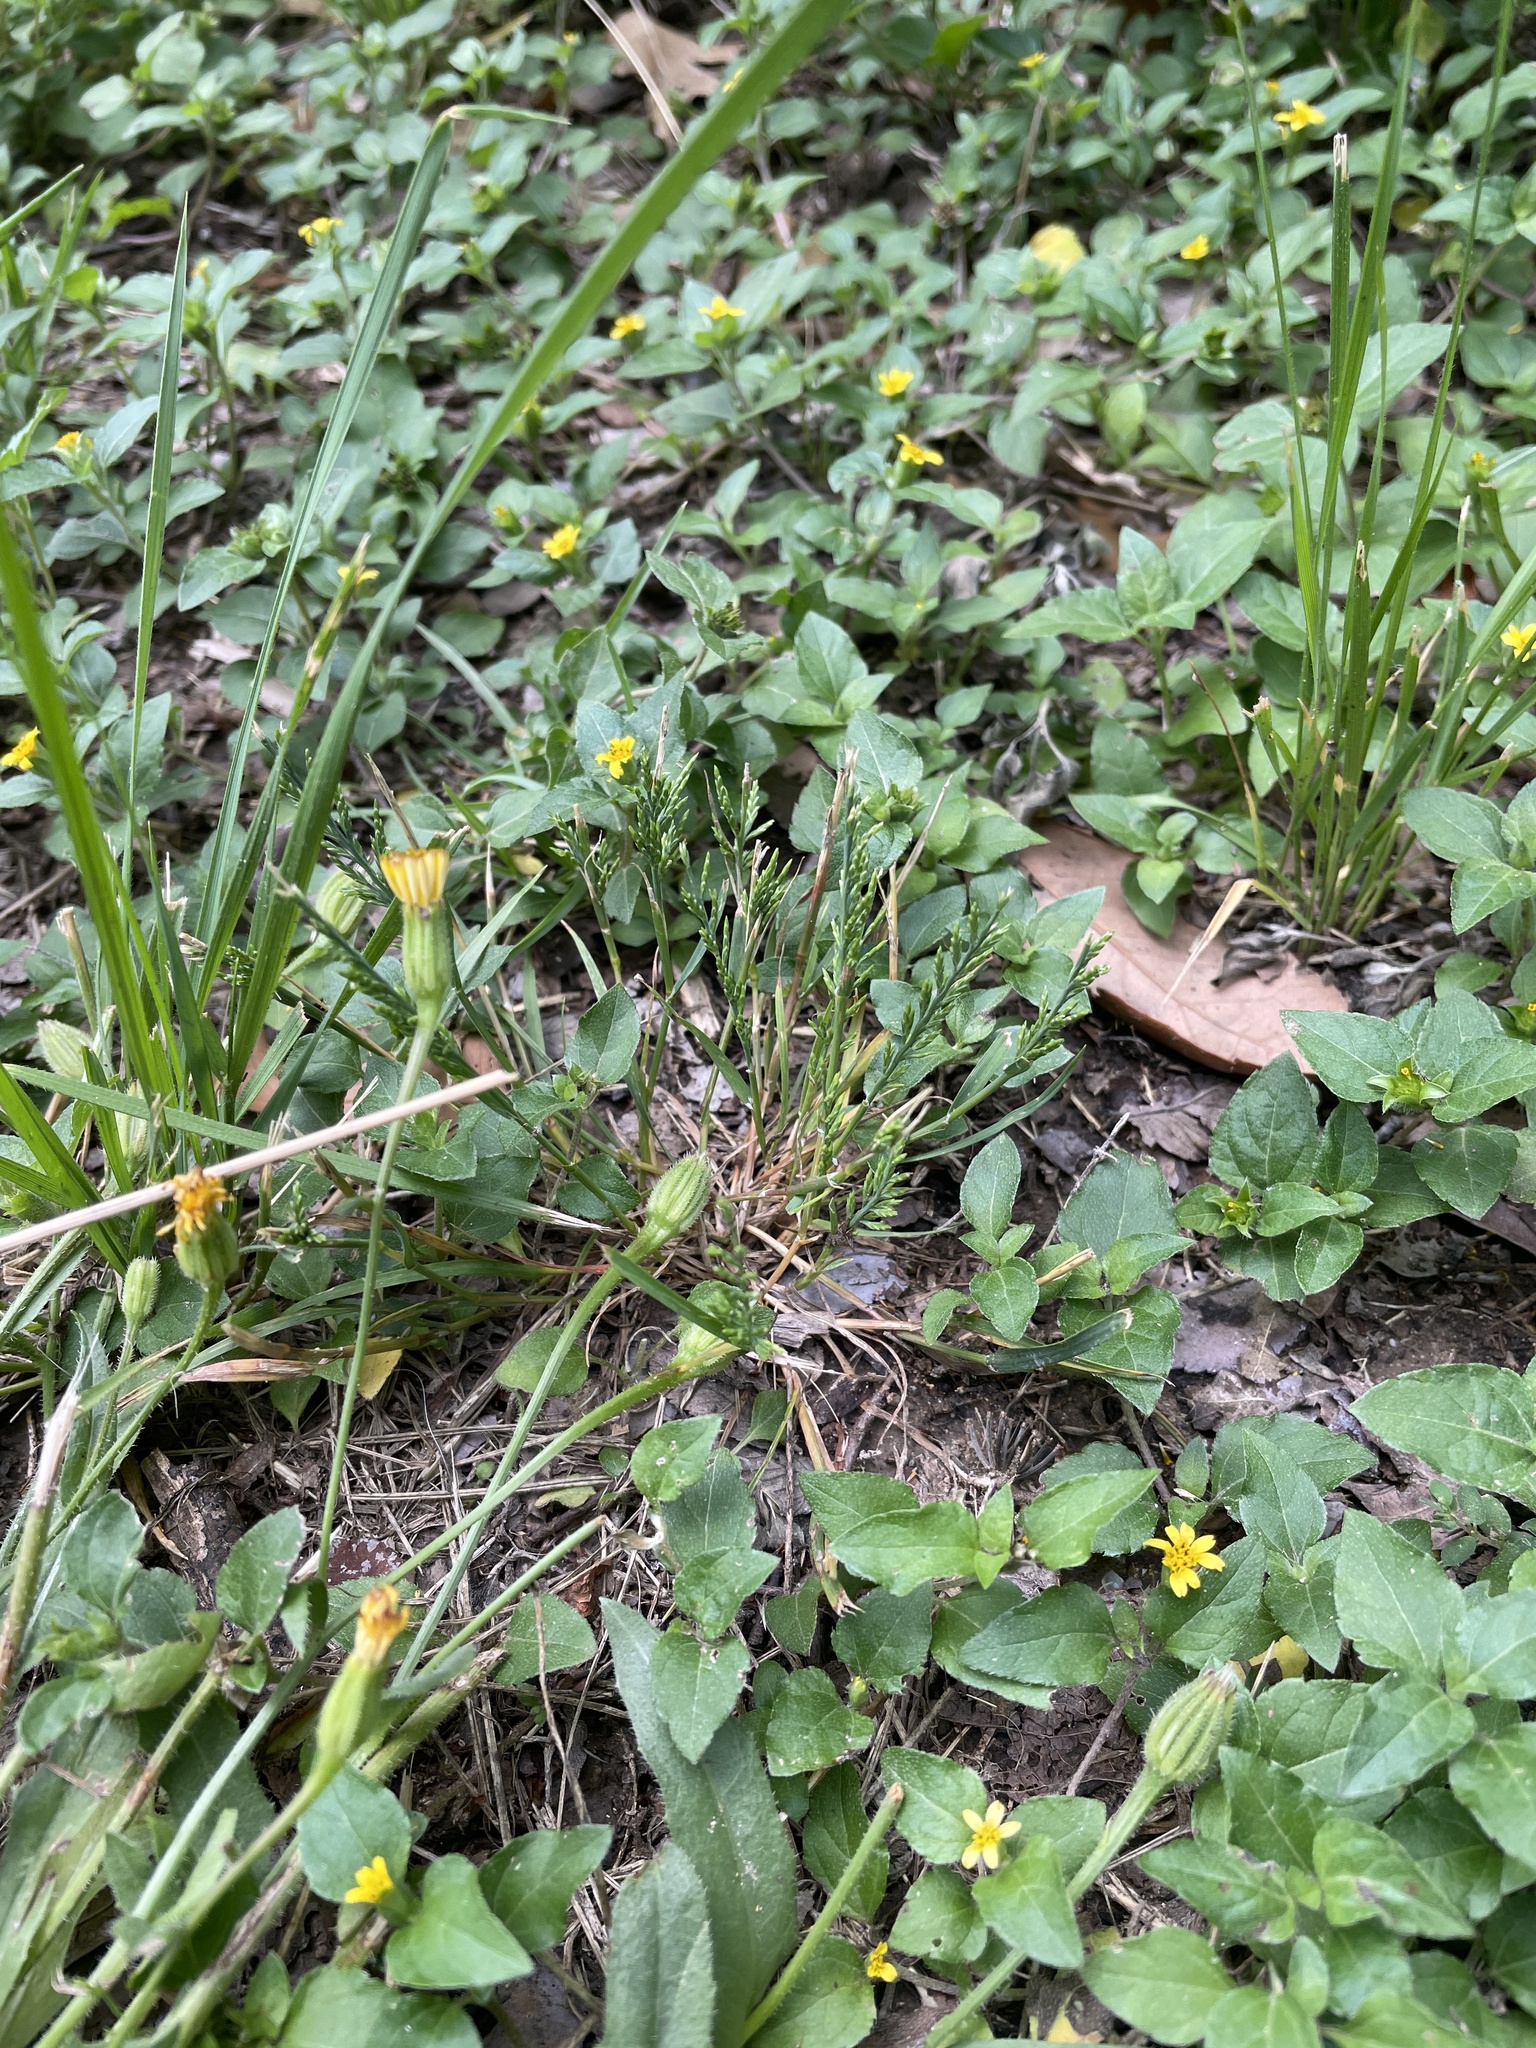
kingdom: Plantae
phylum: Tracheophyta
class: Liliopsida
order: Poales
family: Poaceae
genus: Catapodium
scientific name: Catapodium rigidum
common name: Fern-grass
